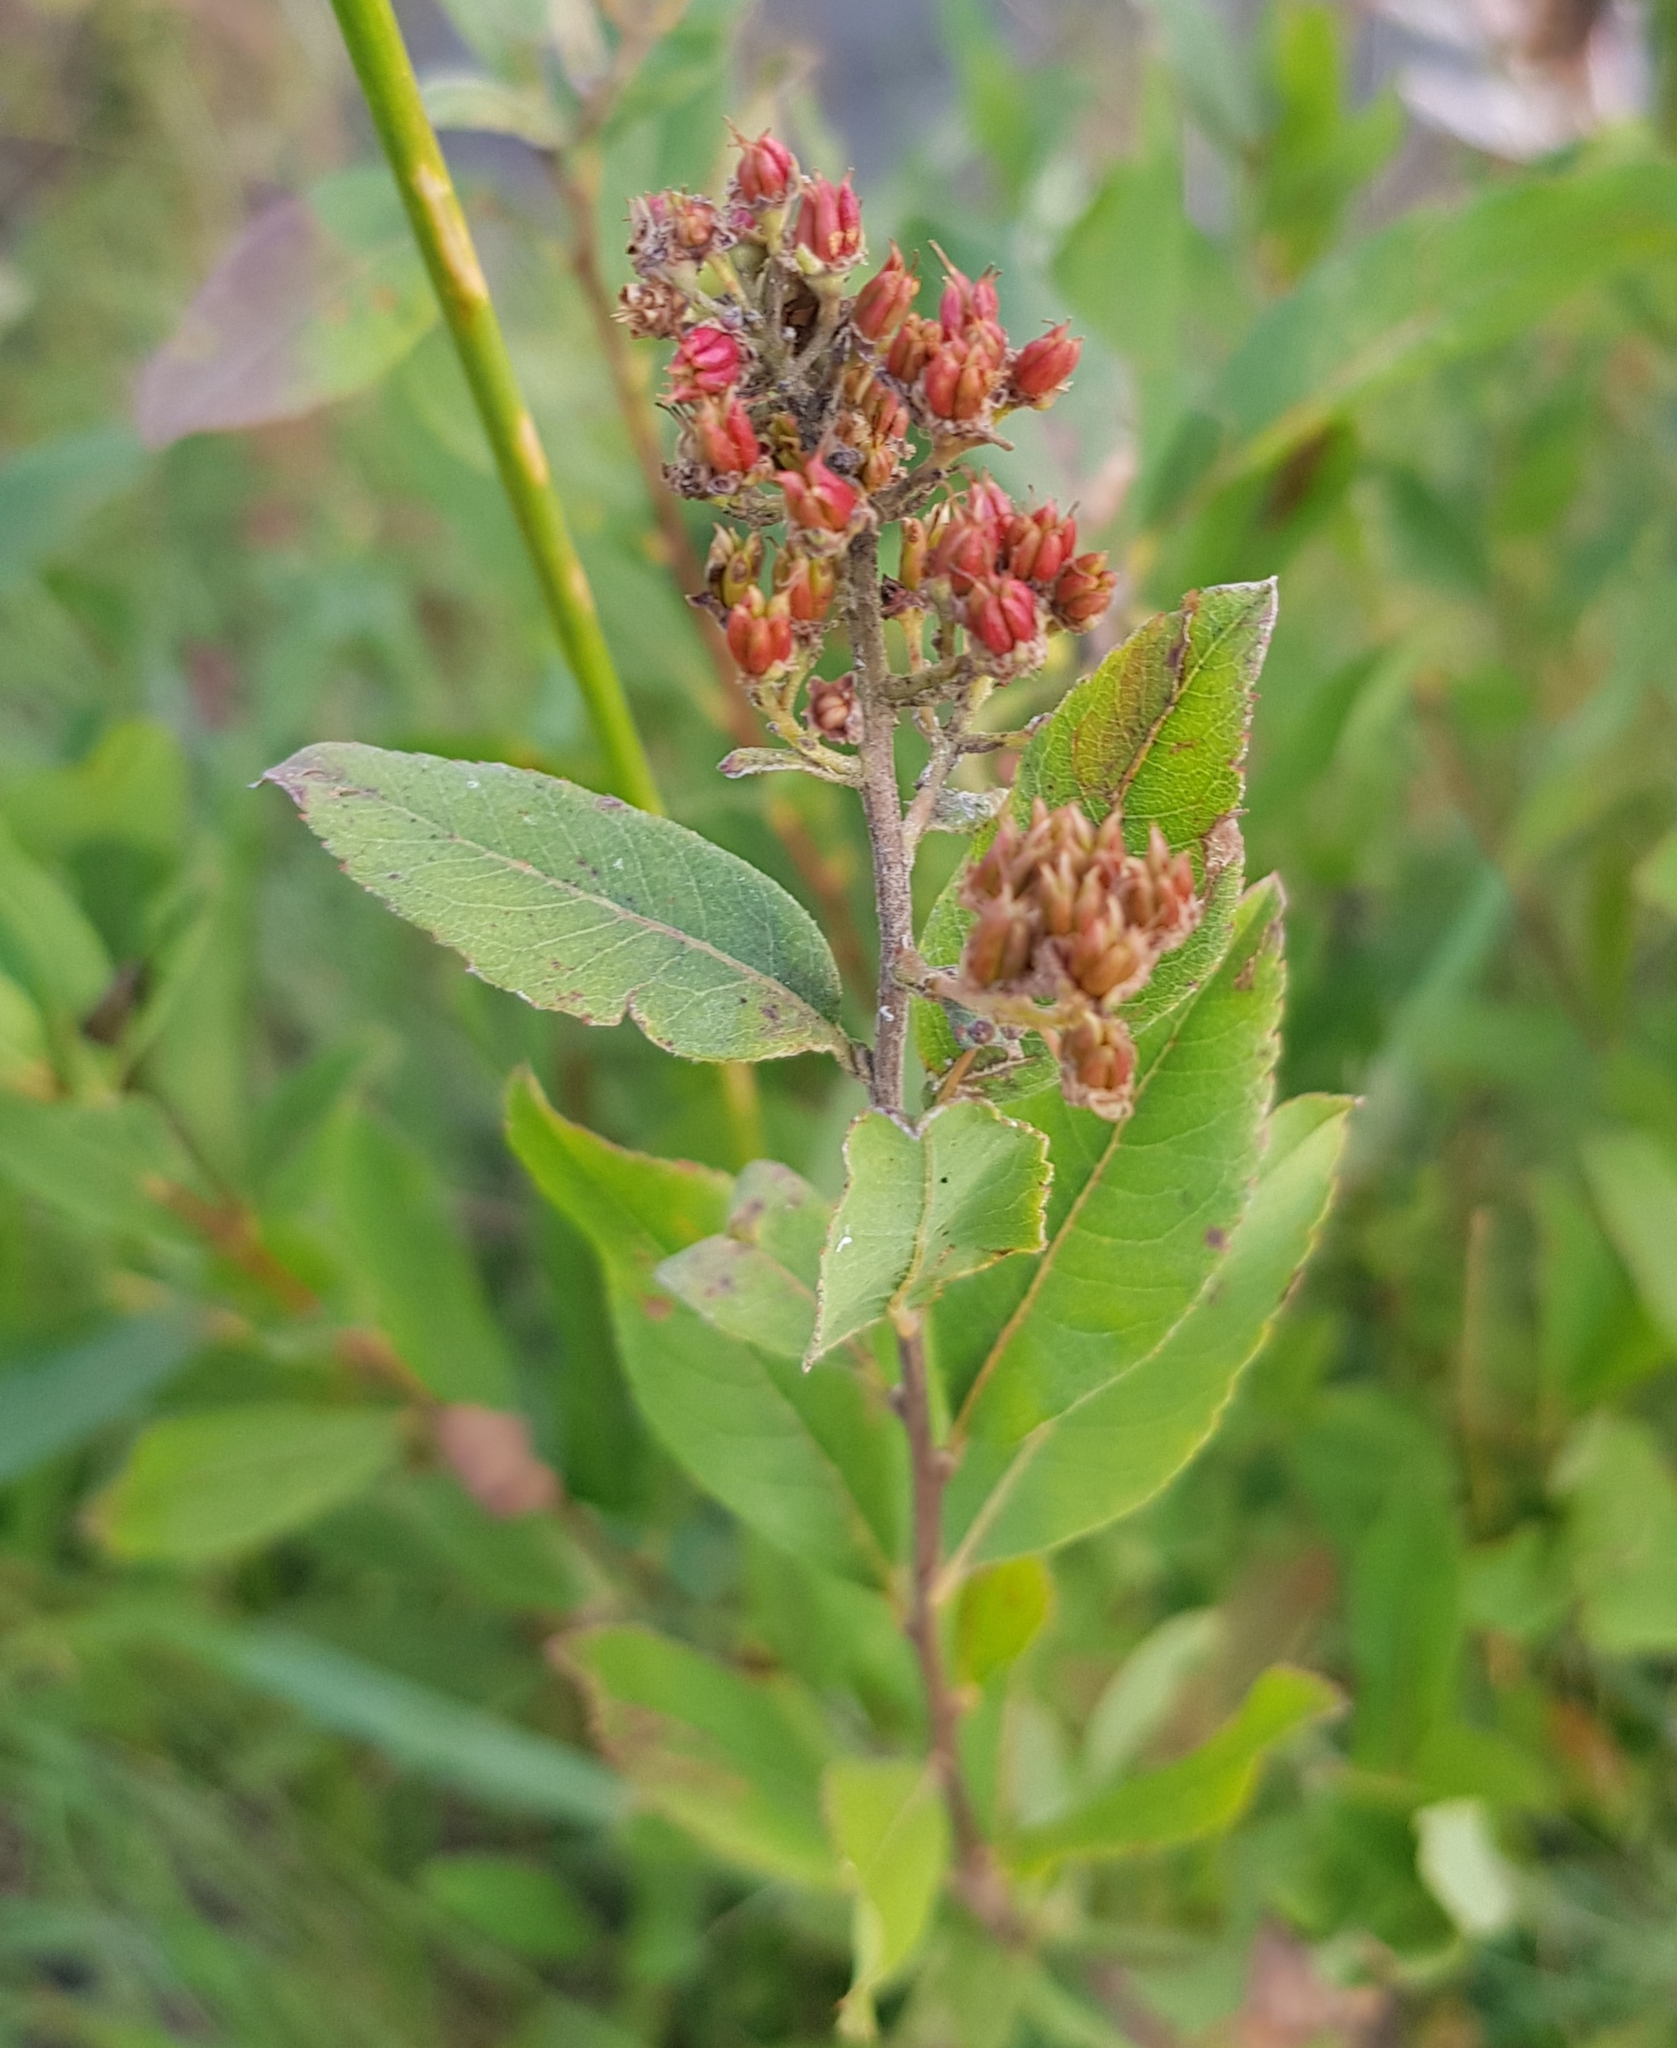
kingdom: Plantae
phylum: Tracheophyta
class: Magnoliopsida
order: Rosales
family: Rosaceae
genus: Spiraea
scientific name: Spiraea salicifolia
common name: Bridewort
